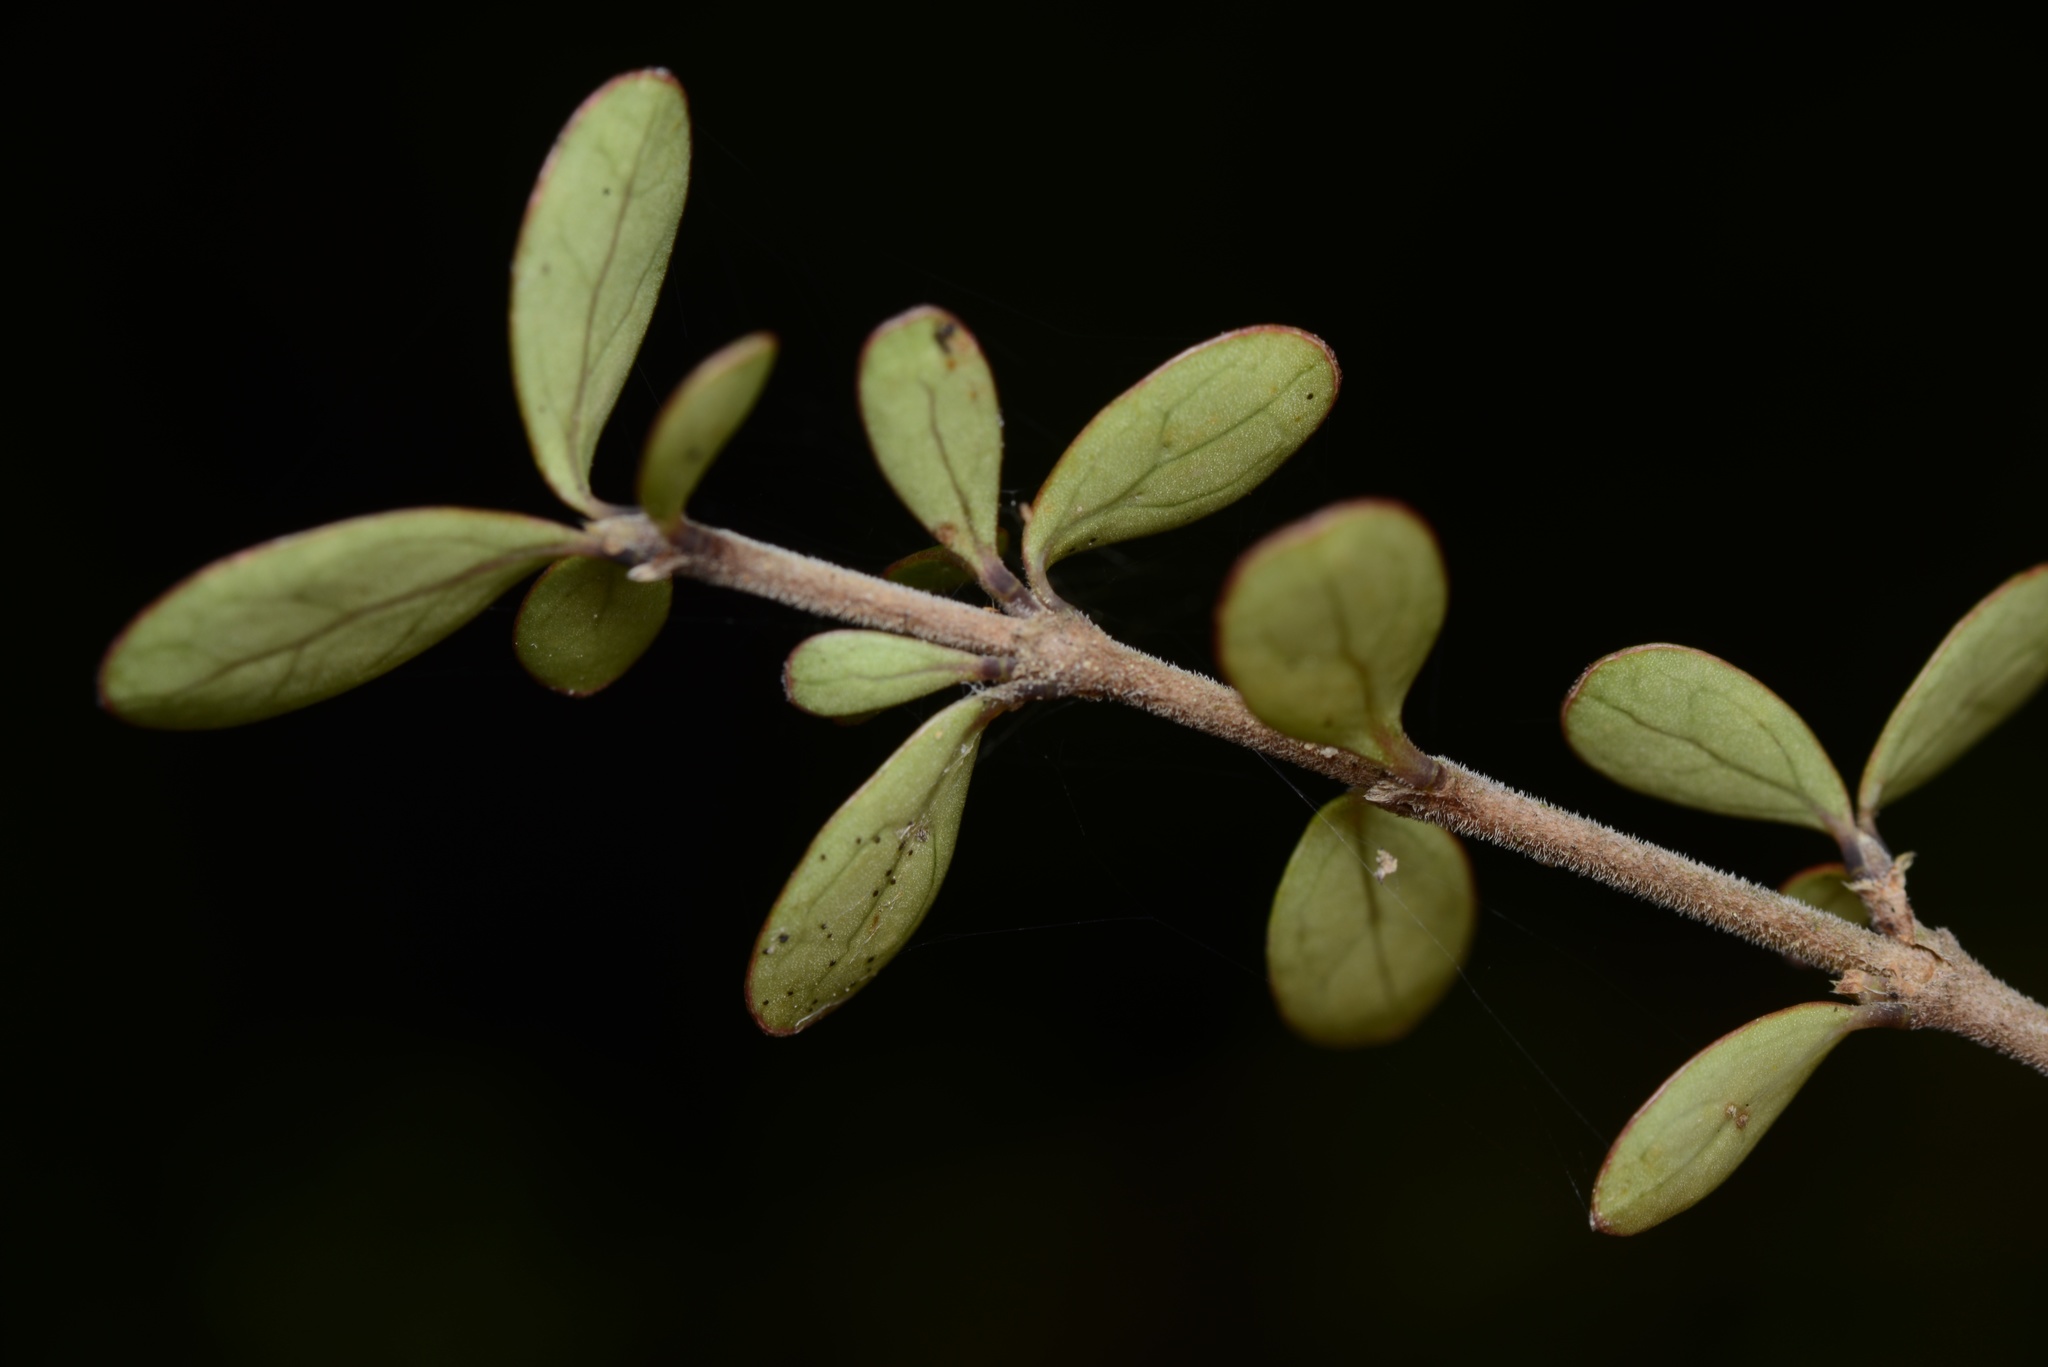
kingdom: Plantae
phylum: Tracheophyta
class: Magnoliopsida
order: Gentianales
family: Rubiaceae
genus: Coprosma
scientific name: Coprosma rigida
